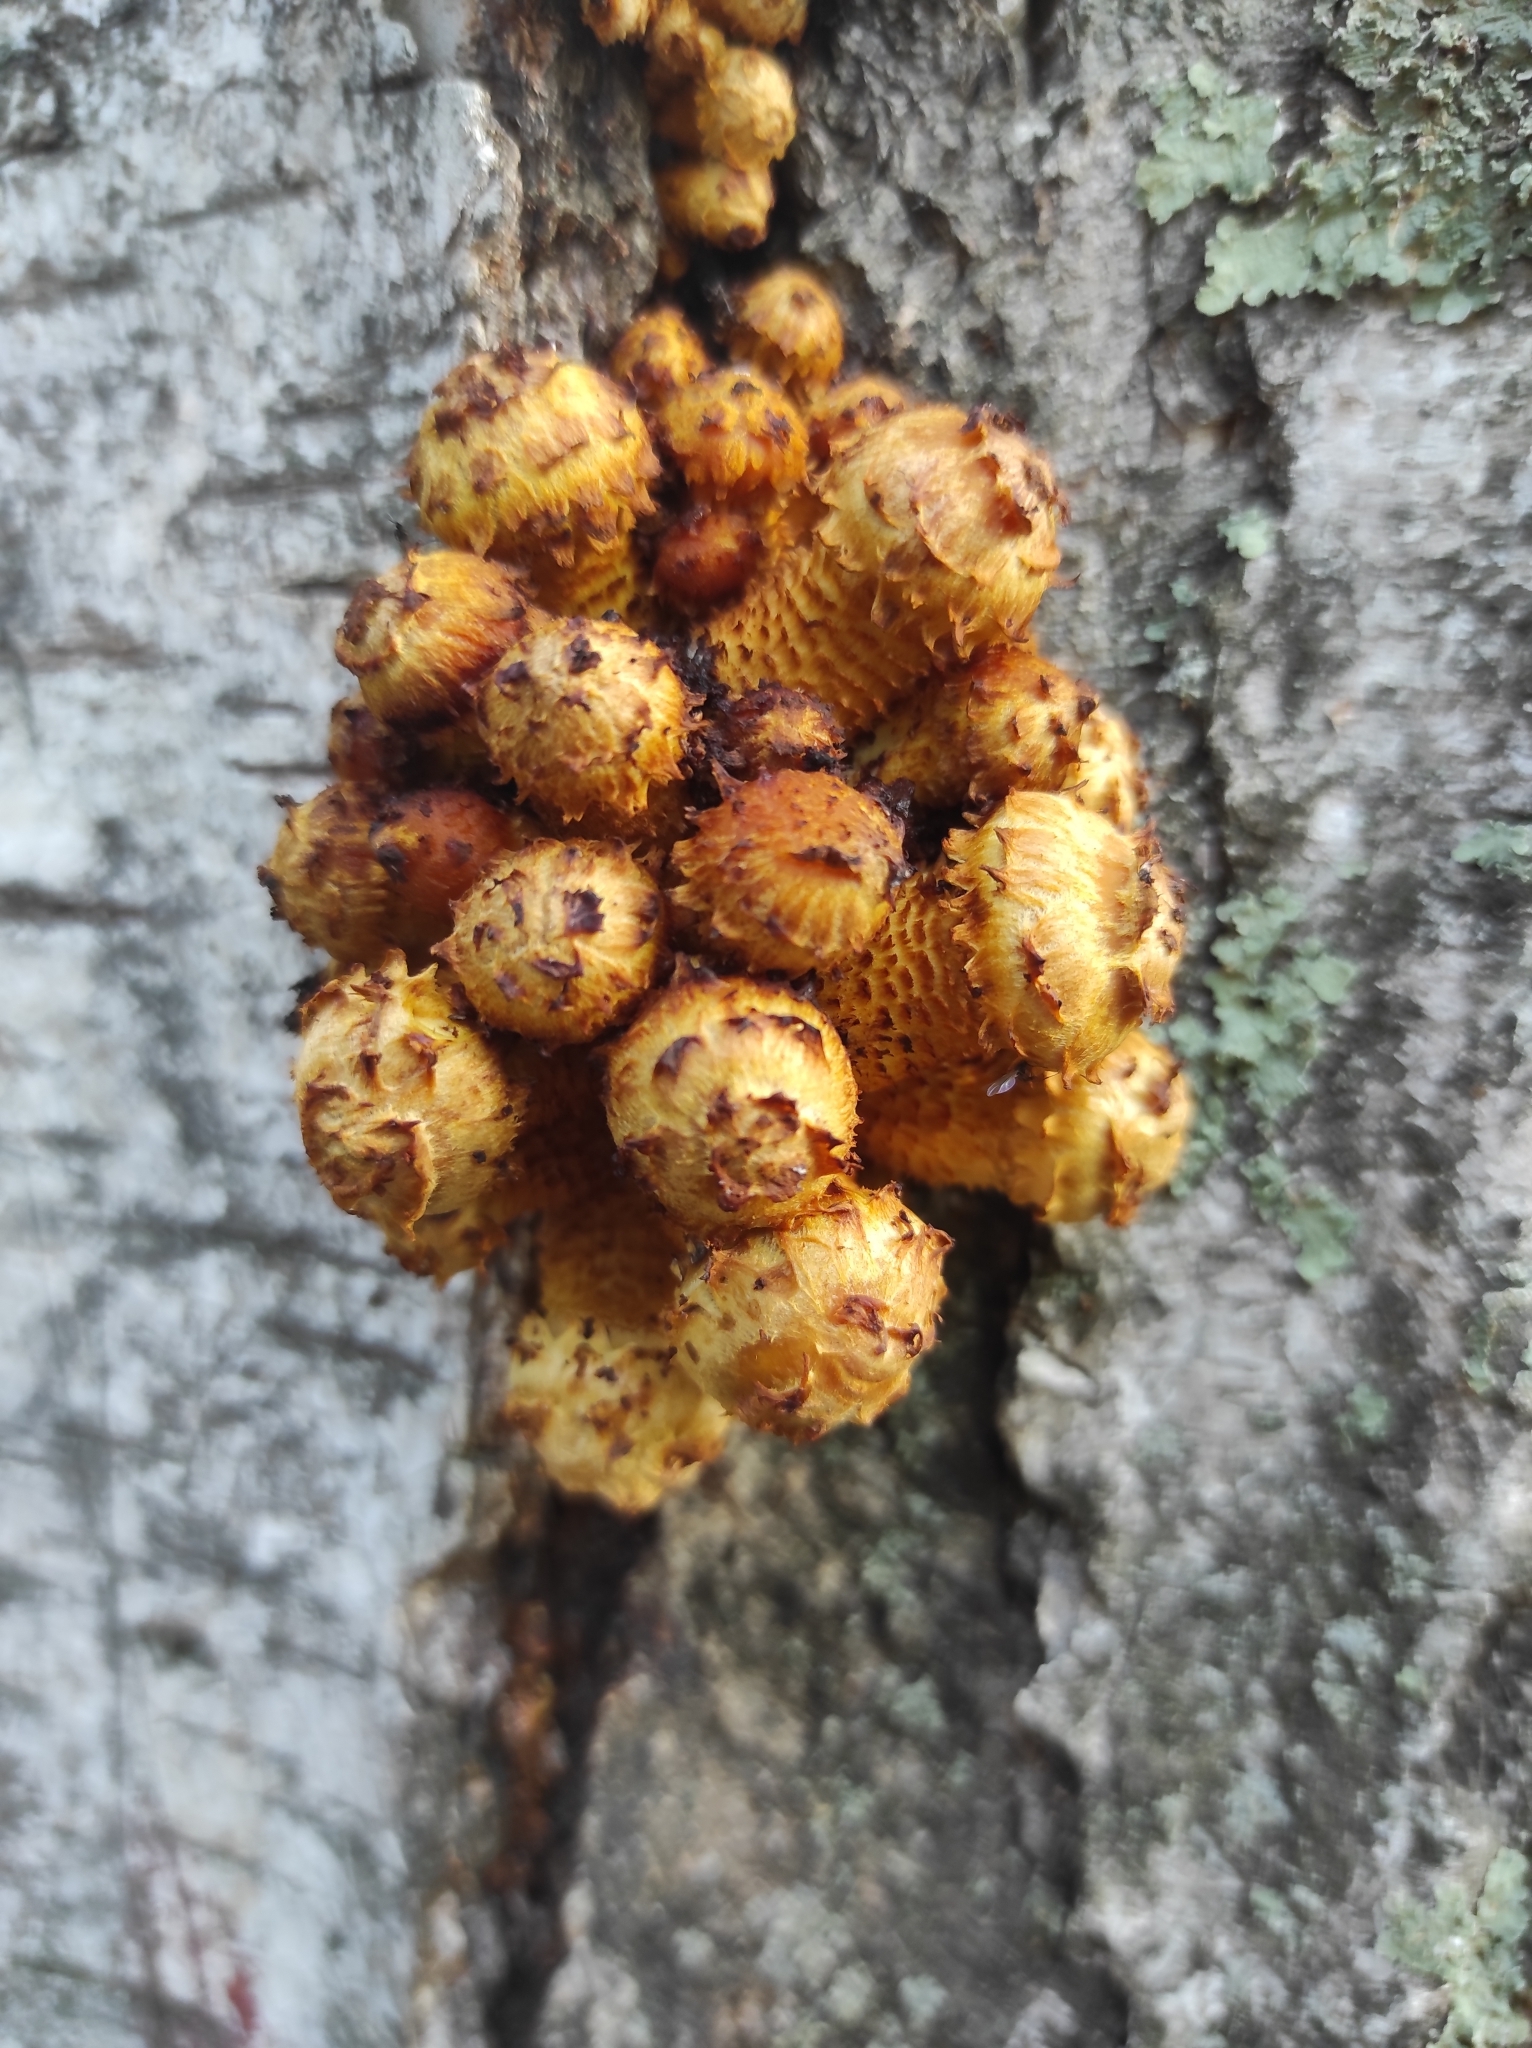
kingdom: Fungi
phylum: Basidiomycota
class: Agaricomycetes
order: Agaricales
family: Strophariaceae
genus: Pholiota
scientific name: Pholiota aurivella
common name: Golden scalycap
